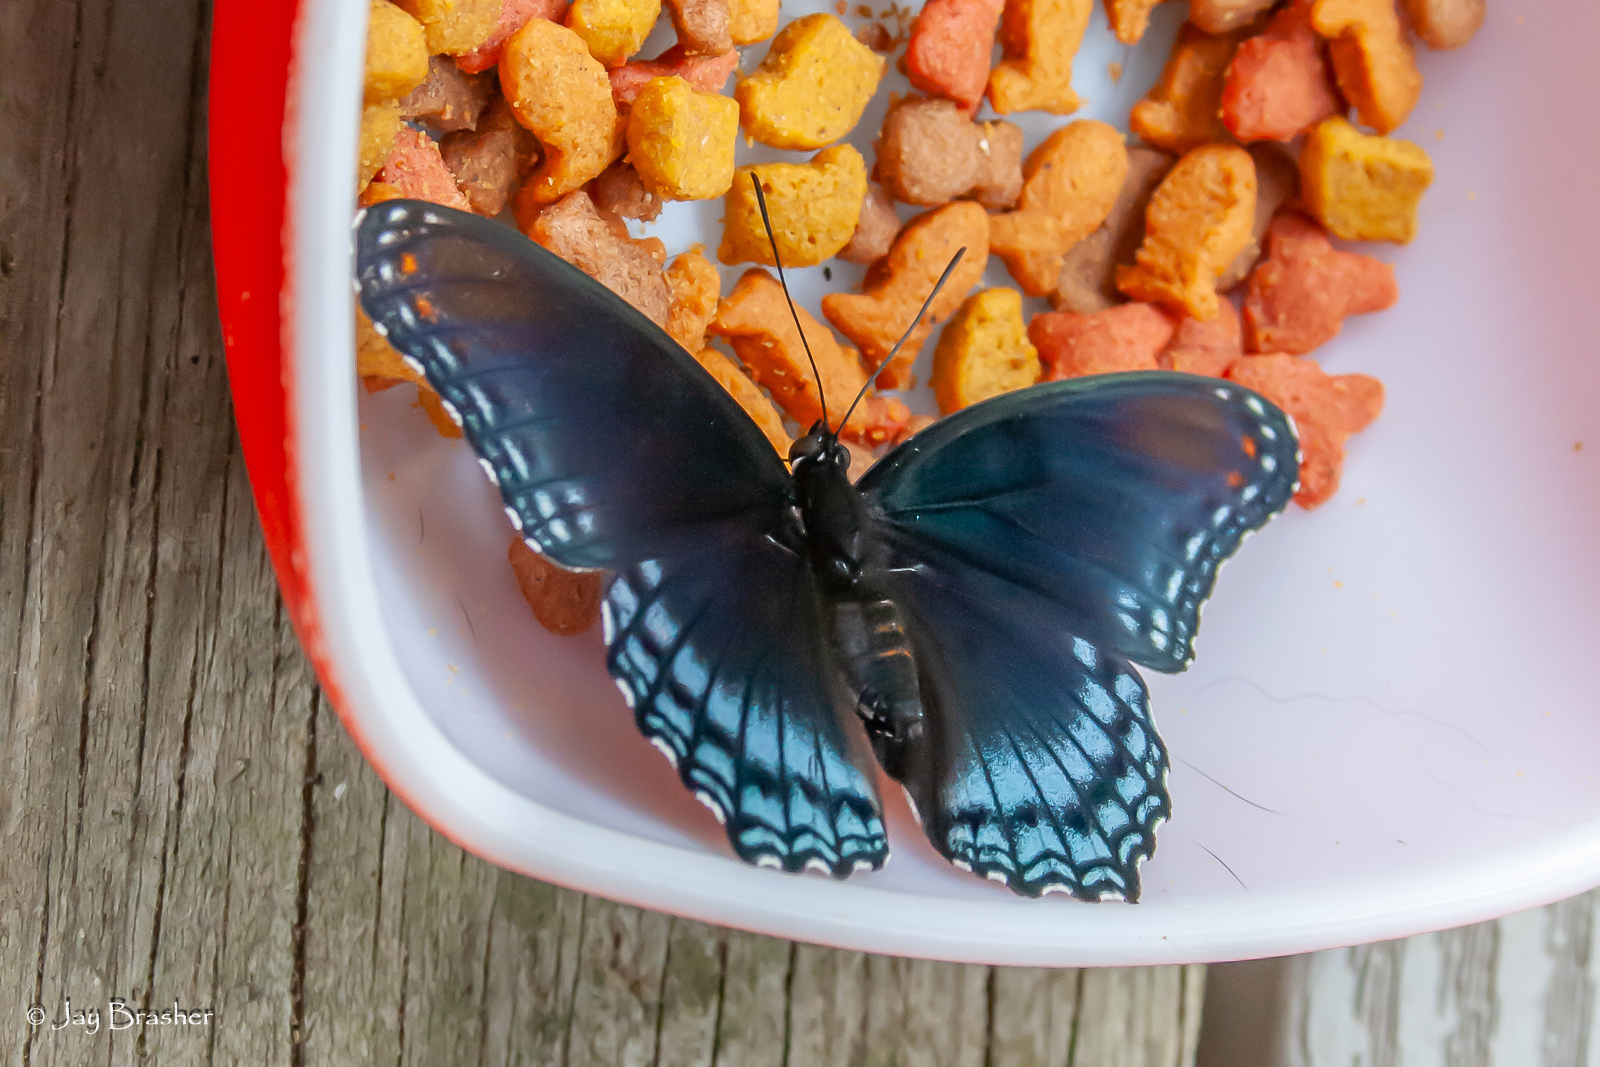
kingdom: Animalia
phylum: Arthropoda
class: Insecta
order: Lepidoptera
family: Nymphalidae
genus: Limenitis
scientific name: Limenitis astyanax
